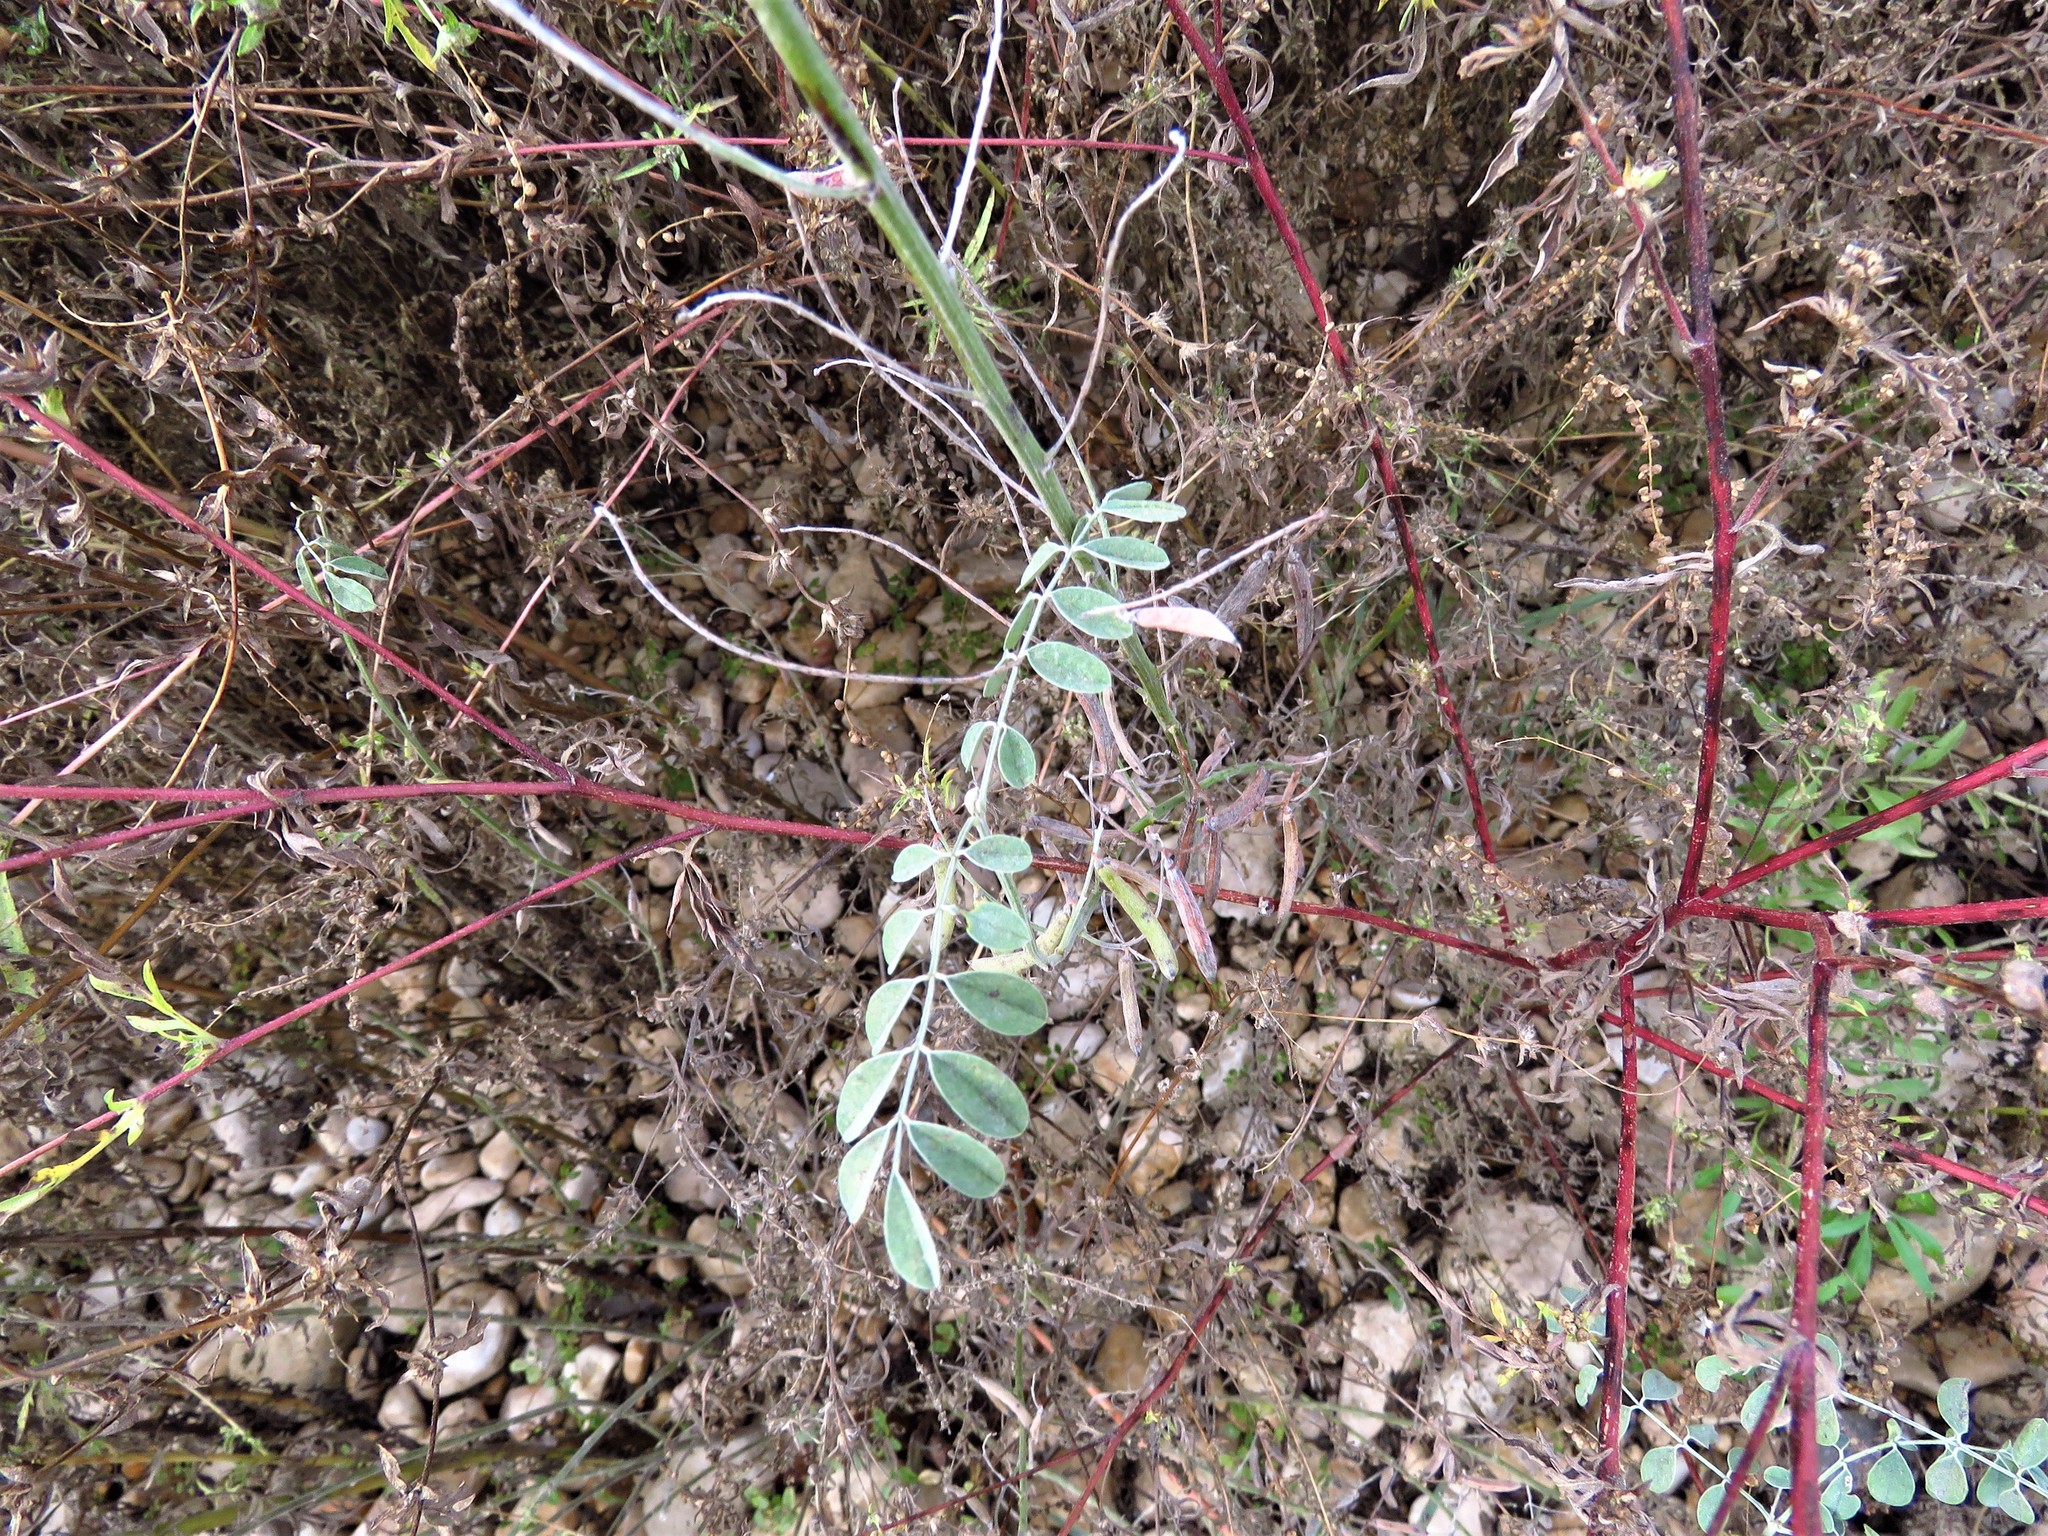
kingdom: Plantae
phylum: Tracheophyta
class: Magnoliopsida
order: Fabales
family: Fabaceae
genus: Indigofera
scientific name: Indigofera lindheimeriana
